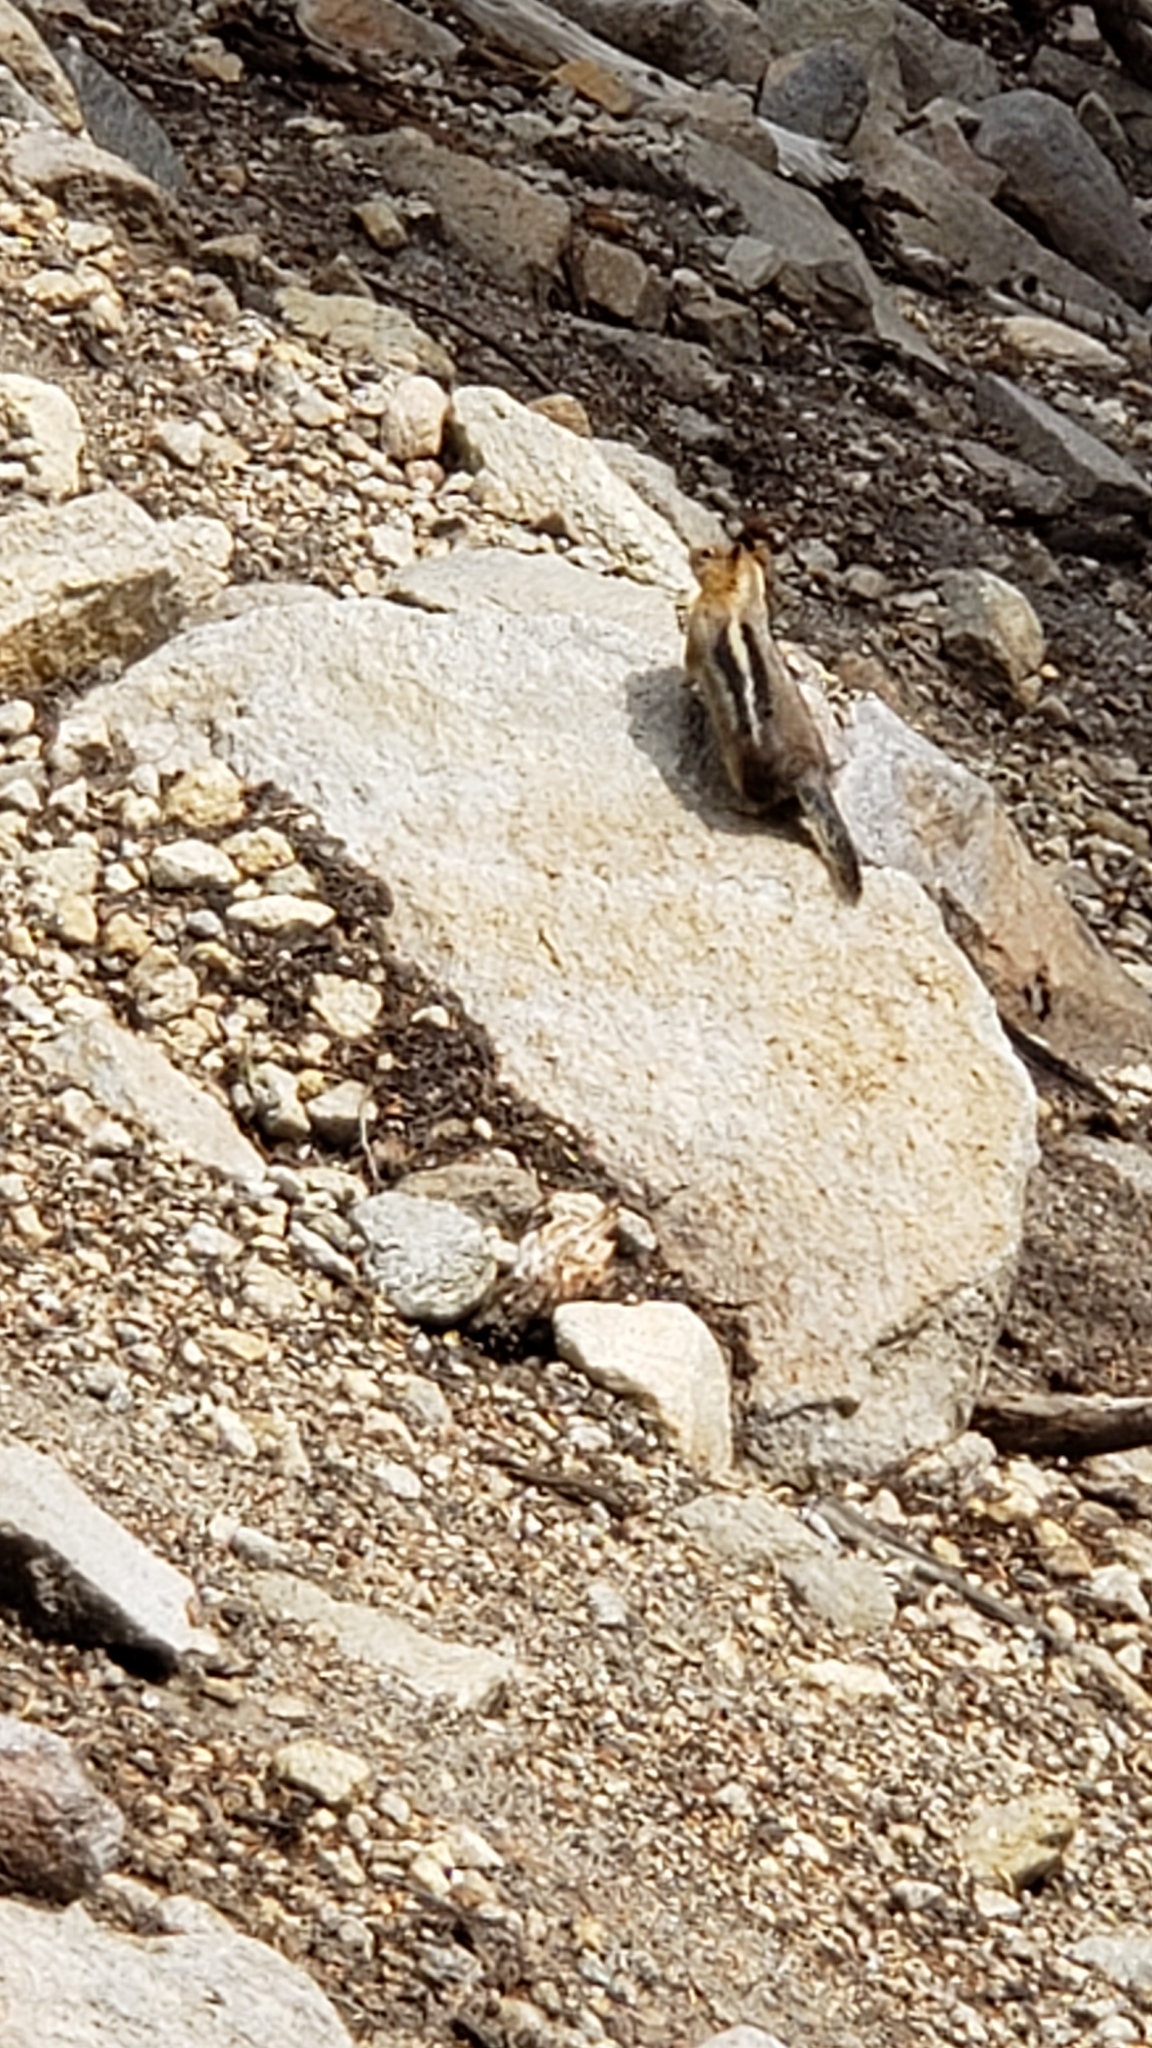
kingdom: Animalia
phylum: Chordata
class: Mammalia
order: Rodentia
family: Sciuridae
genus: Callospermophilus
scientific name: Callospermophilus lateralis
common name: Golden-mantled ground squirrel
